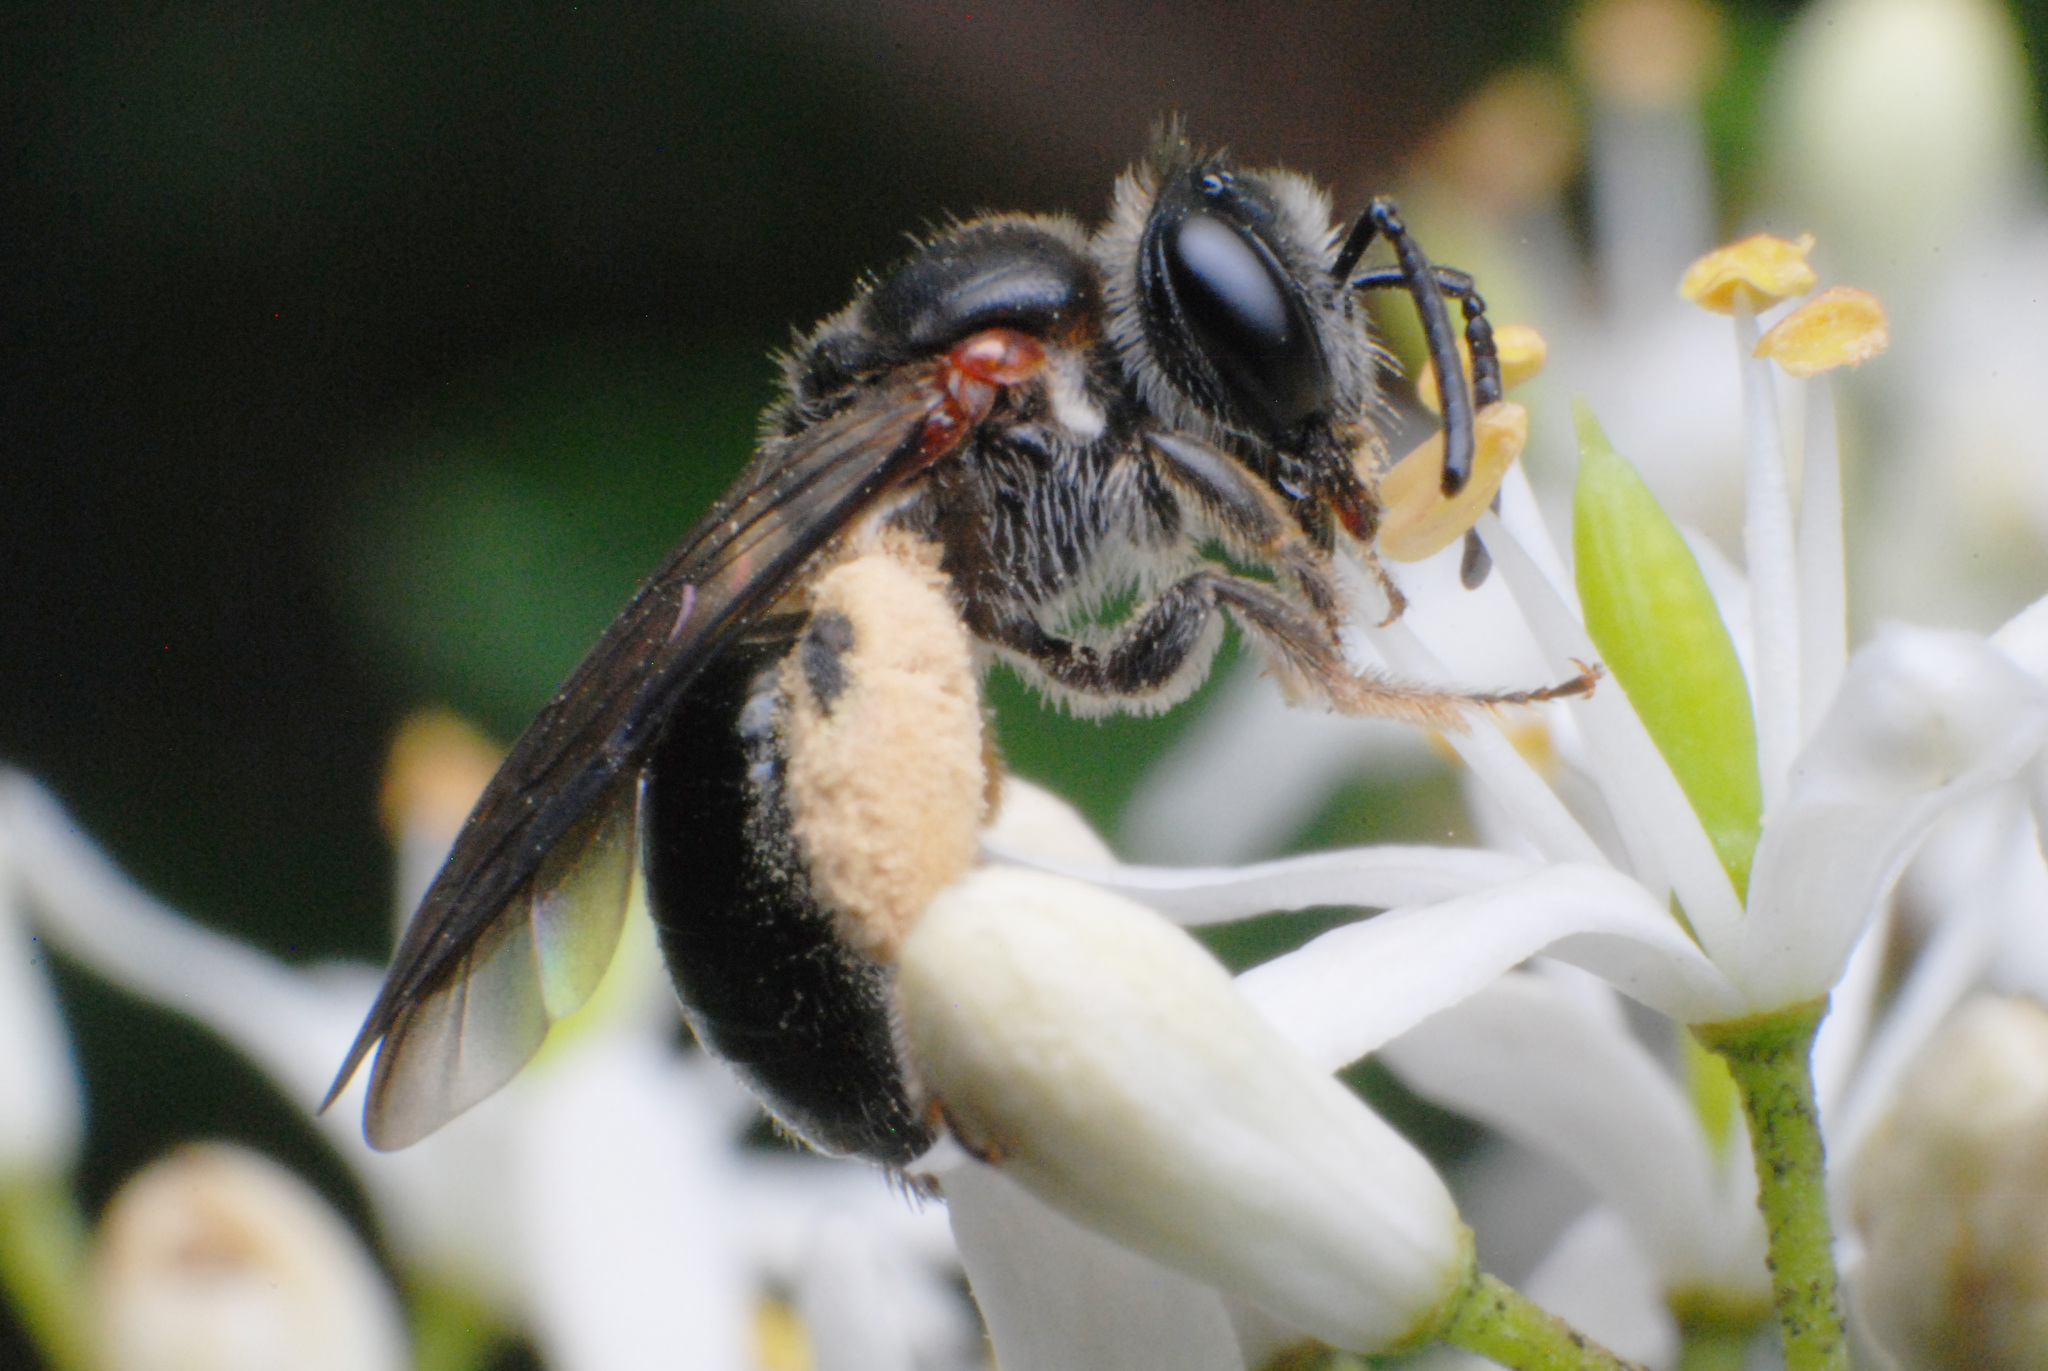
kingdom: Animalia
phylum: Arthropoda
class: Insecta
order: Hymenoptera
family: Colletidae
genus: Leioproctus
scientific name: Leioproctus launcestonensis
